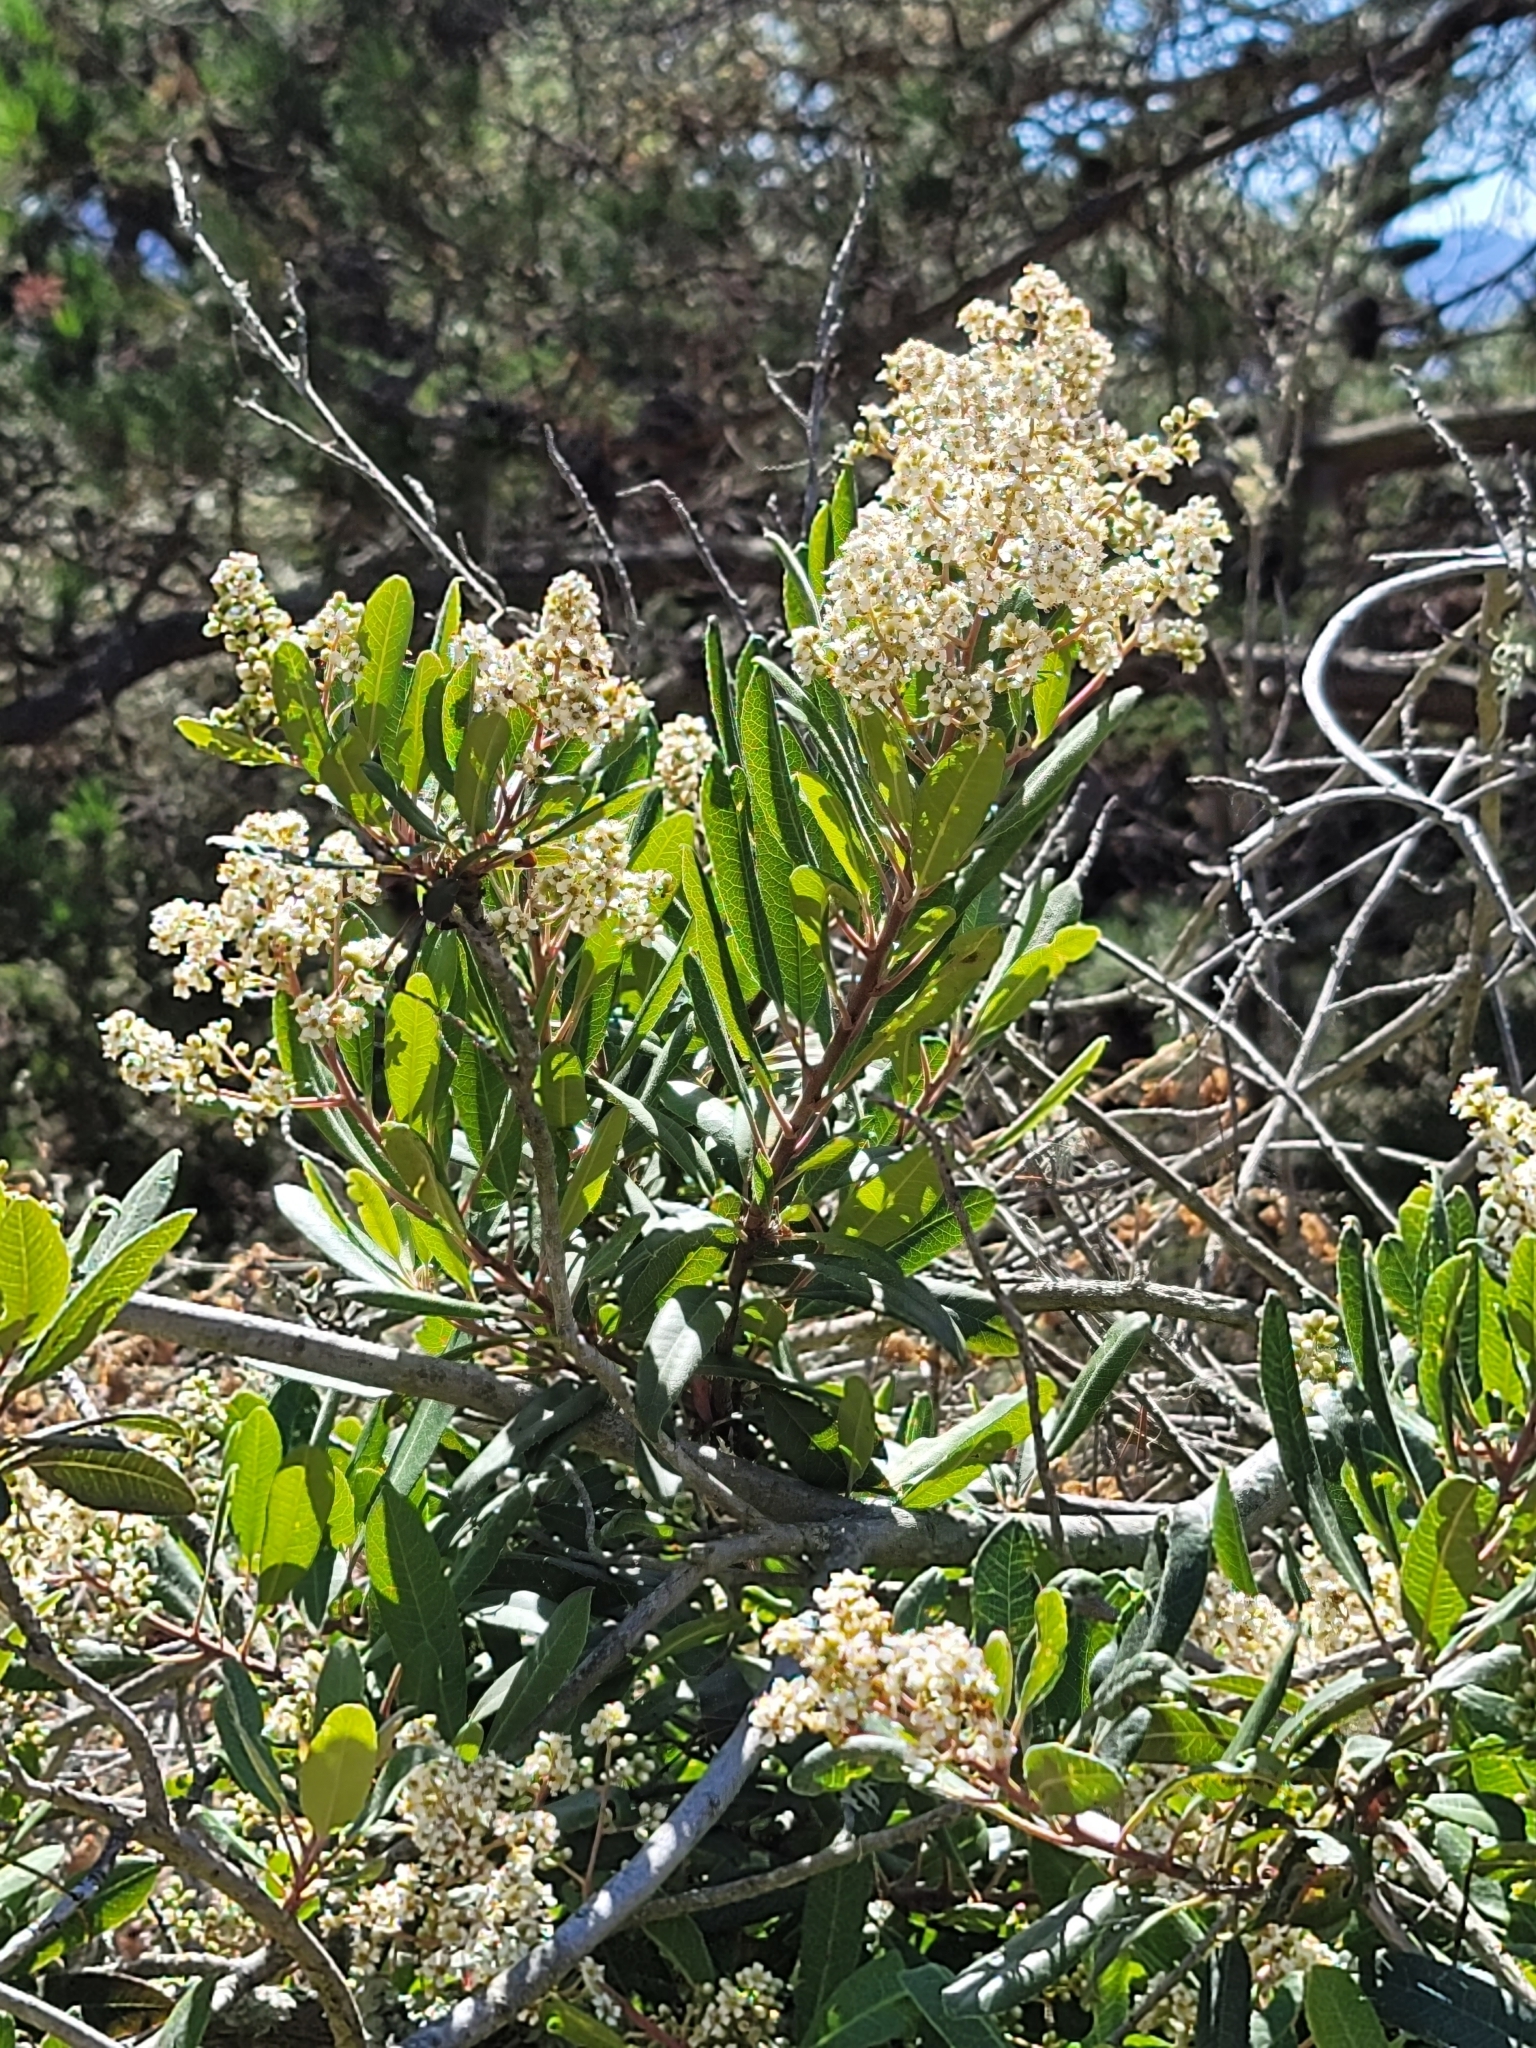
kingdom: Plantae
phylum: Tracheophyta
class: Magnoliopsida
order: Rosales
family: Rosaceae
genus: Heteromeles
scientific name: Heteromeles arbutifolia
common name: California-holly
